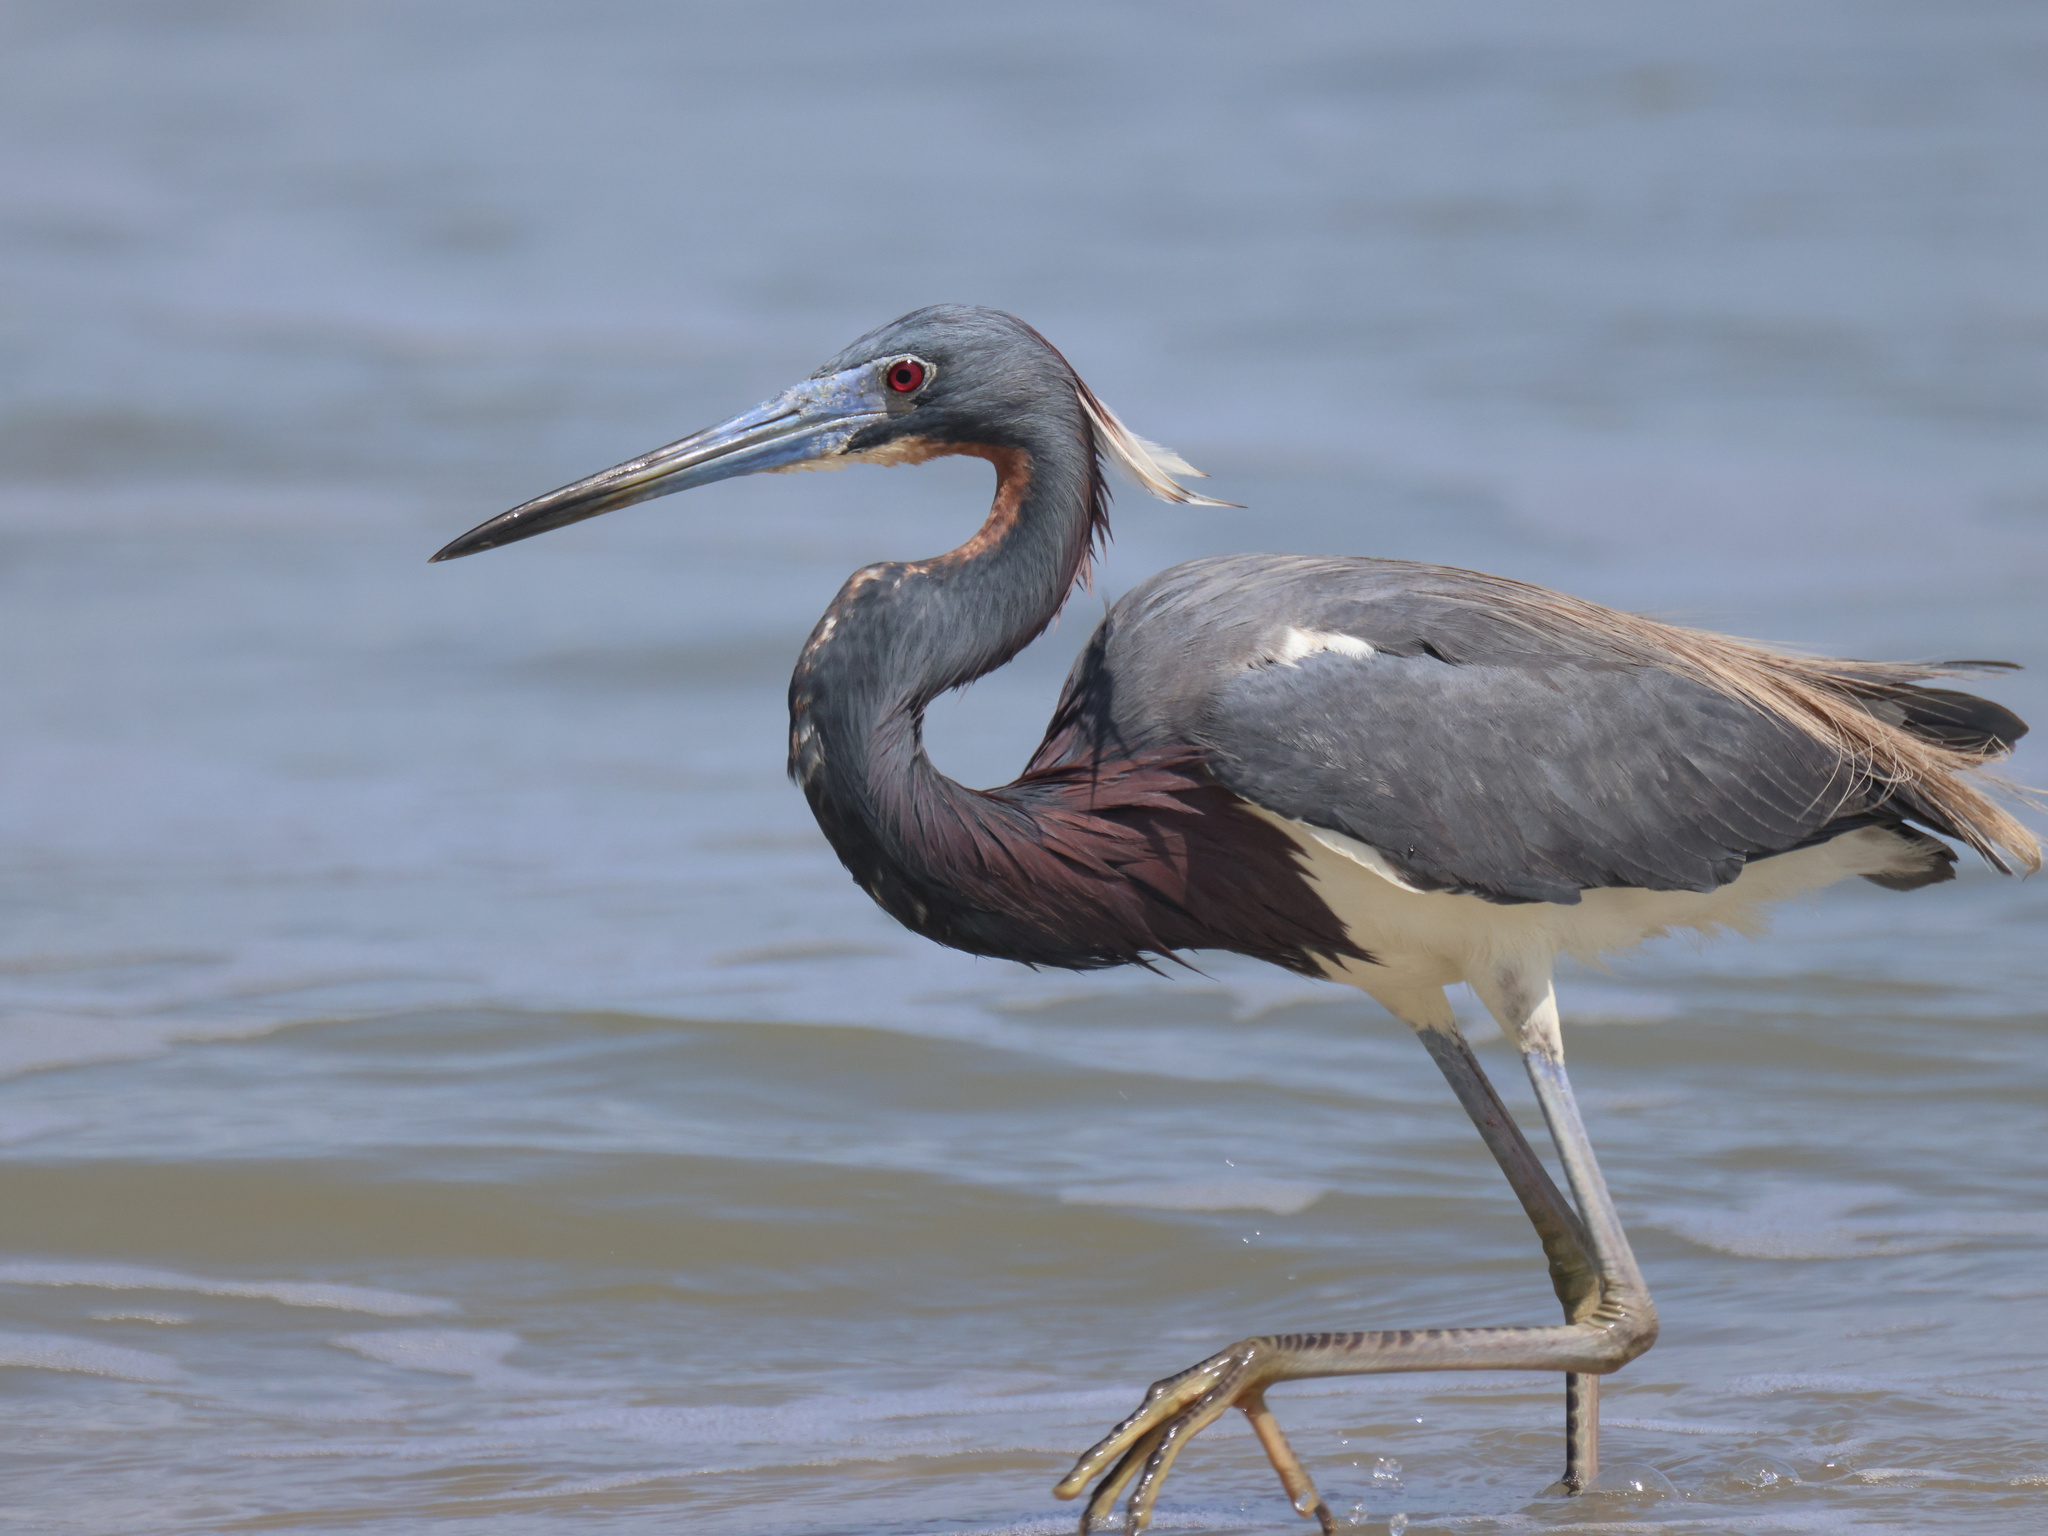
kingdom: Animalia
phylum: Chordata
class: Aves
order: Pelecaniformes
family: Ardeidae
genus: Egretta
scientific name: Egretta tricolor
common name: Tricolored heron
